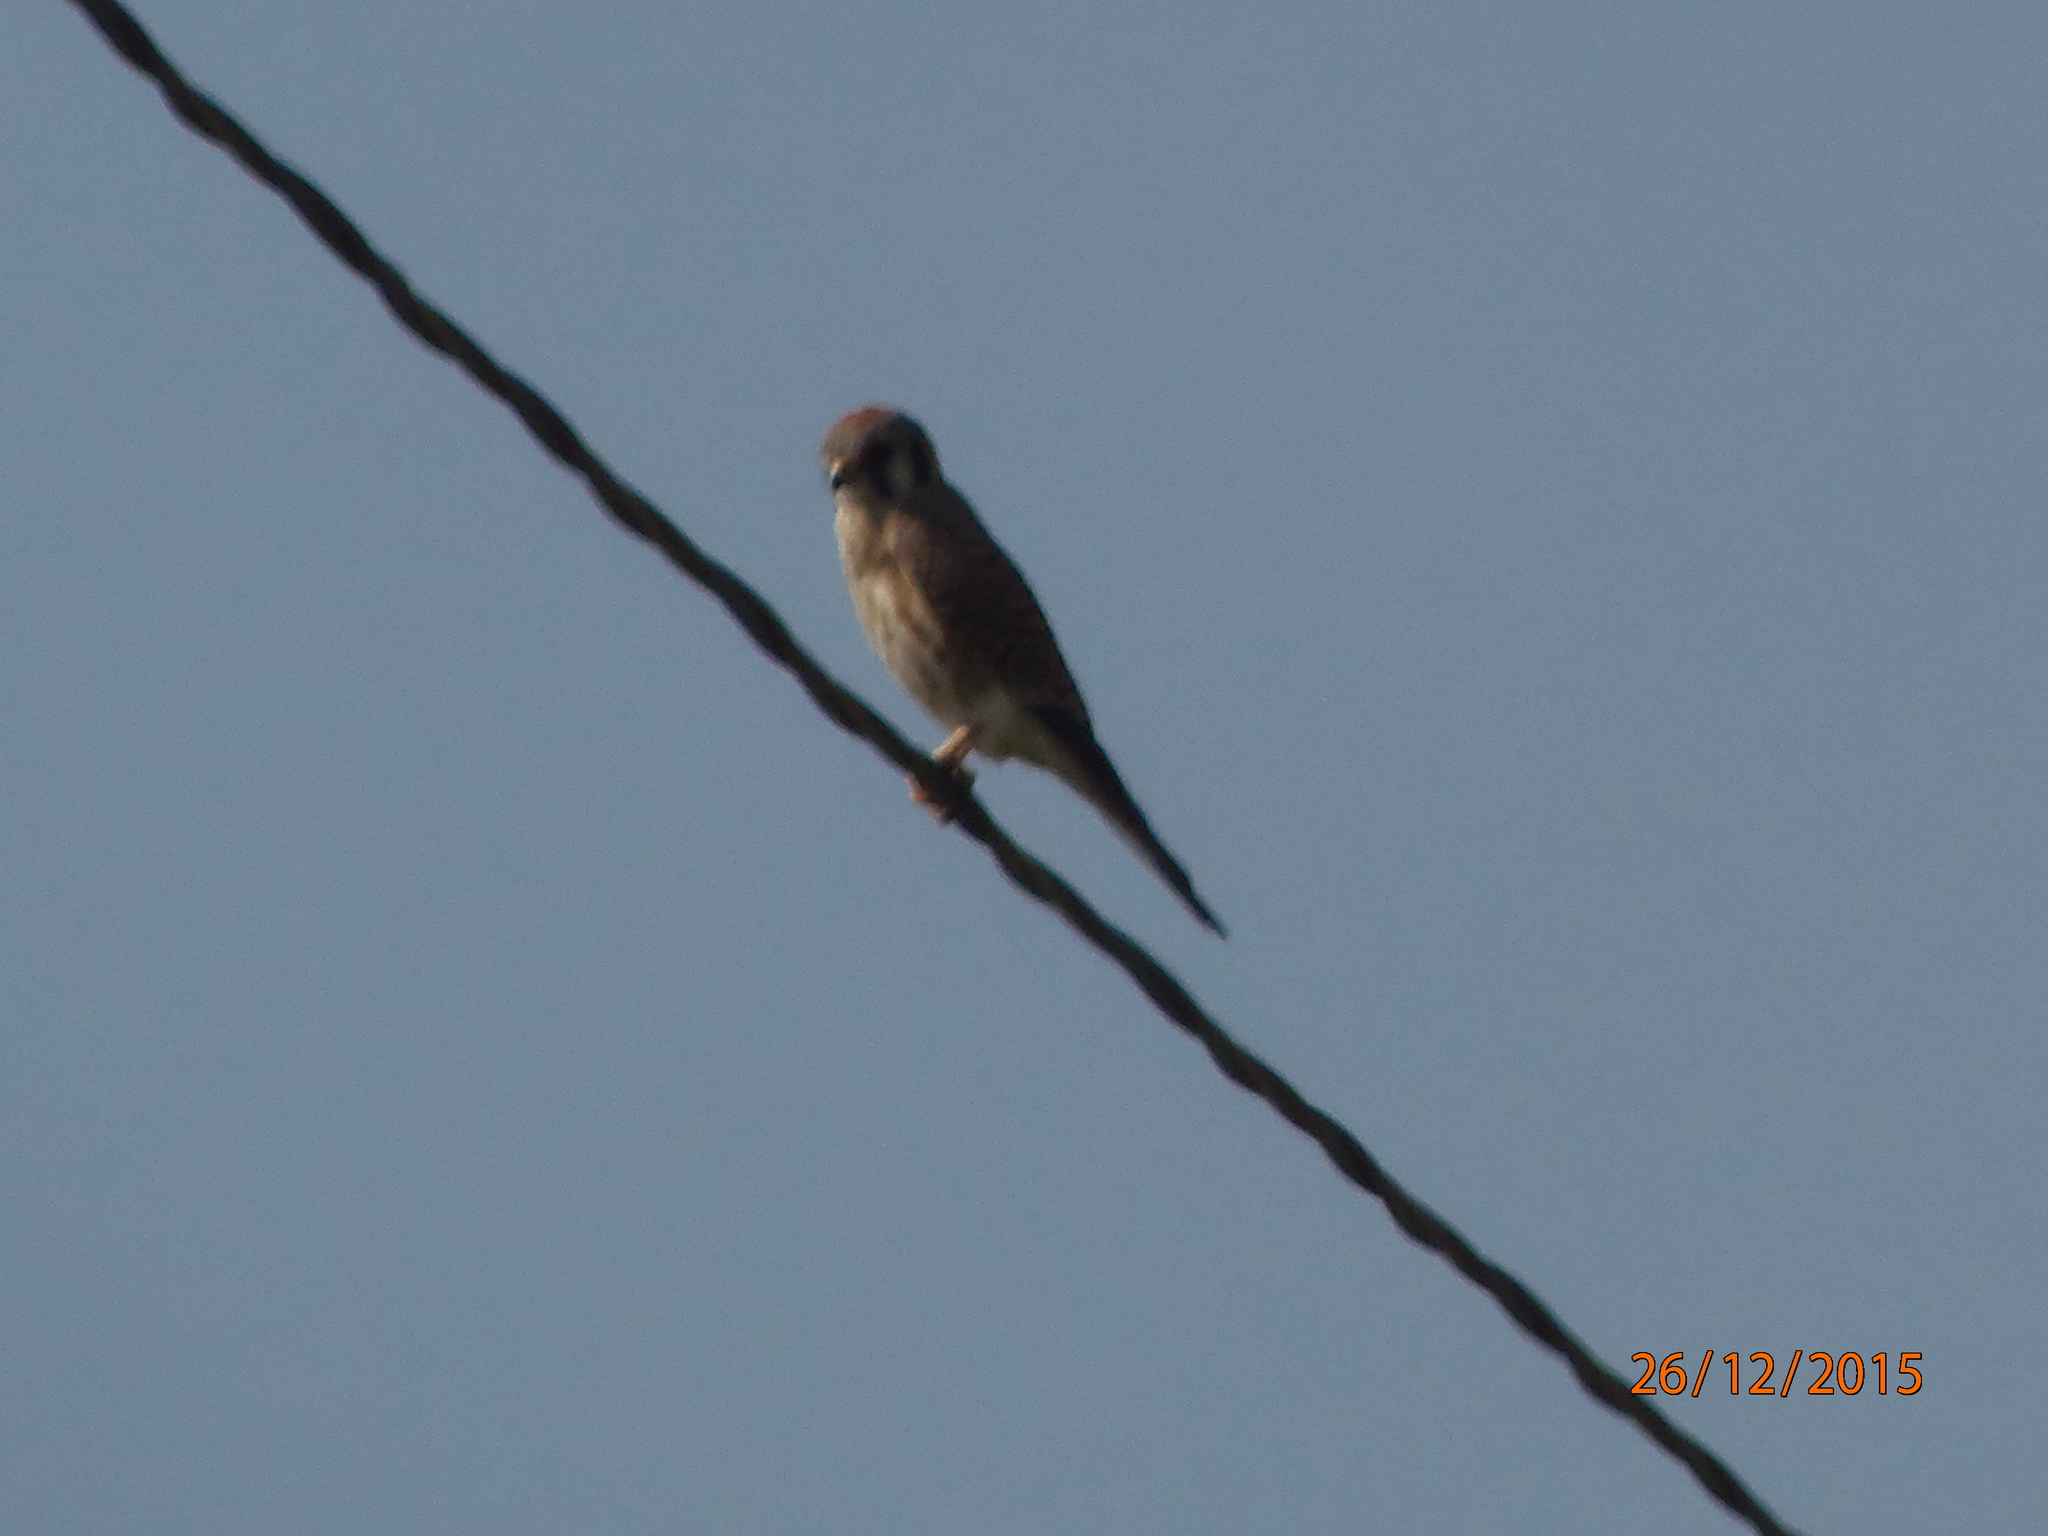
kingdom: Animalia
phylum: Chordata
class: Aves
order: Falconiformes
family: Falconidae
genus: Falco
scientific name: Falco sparverius
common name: American kestrel
